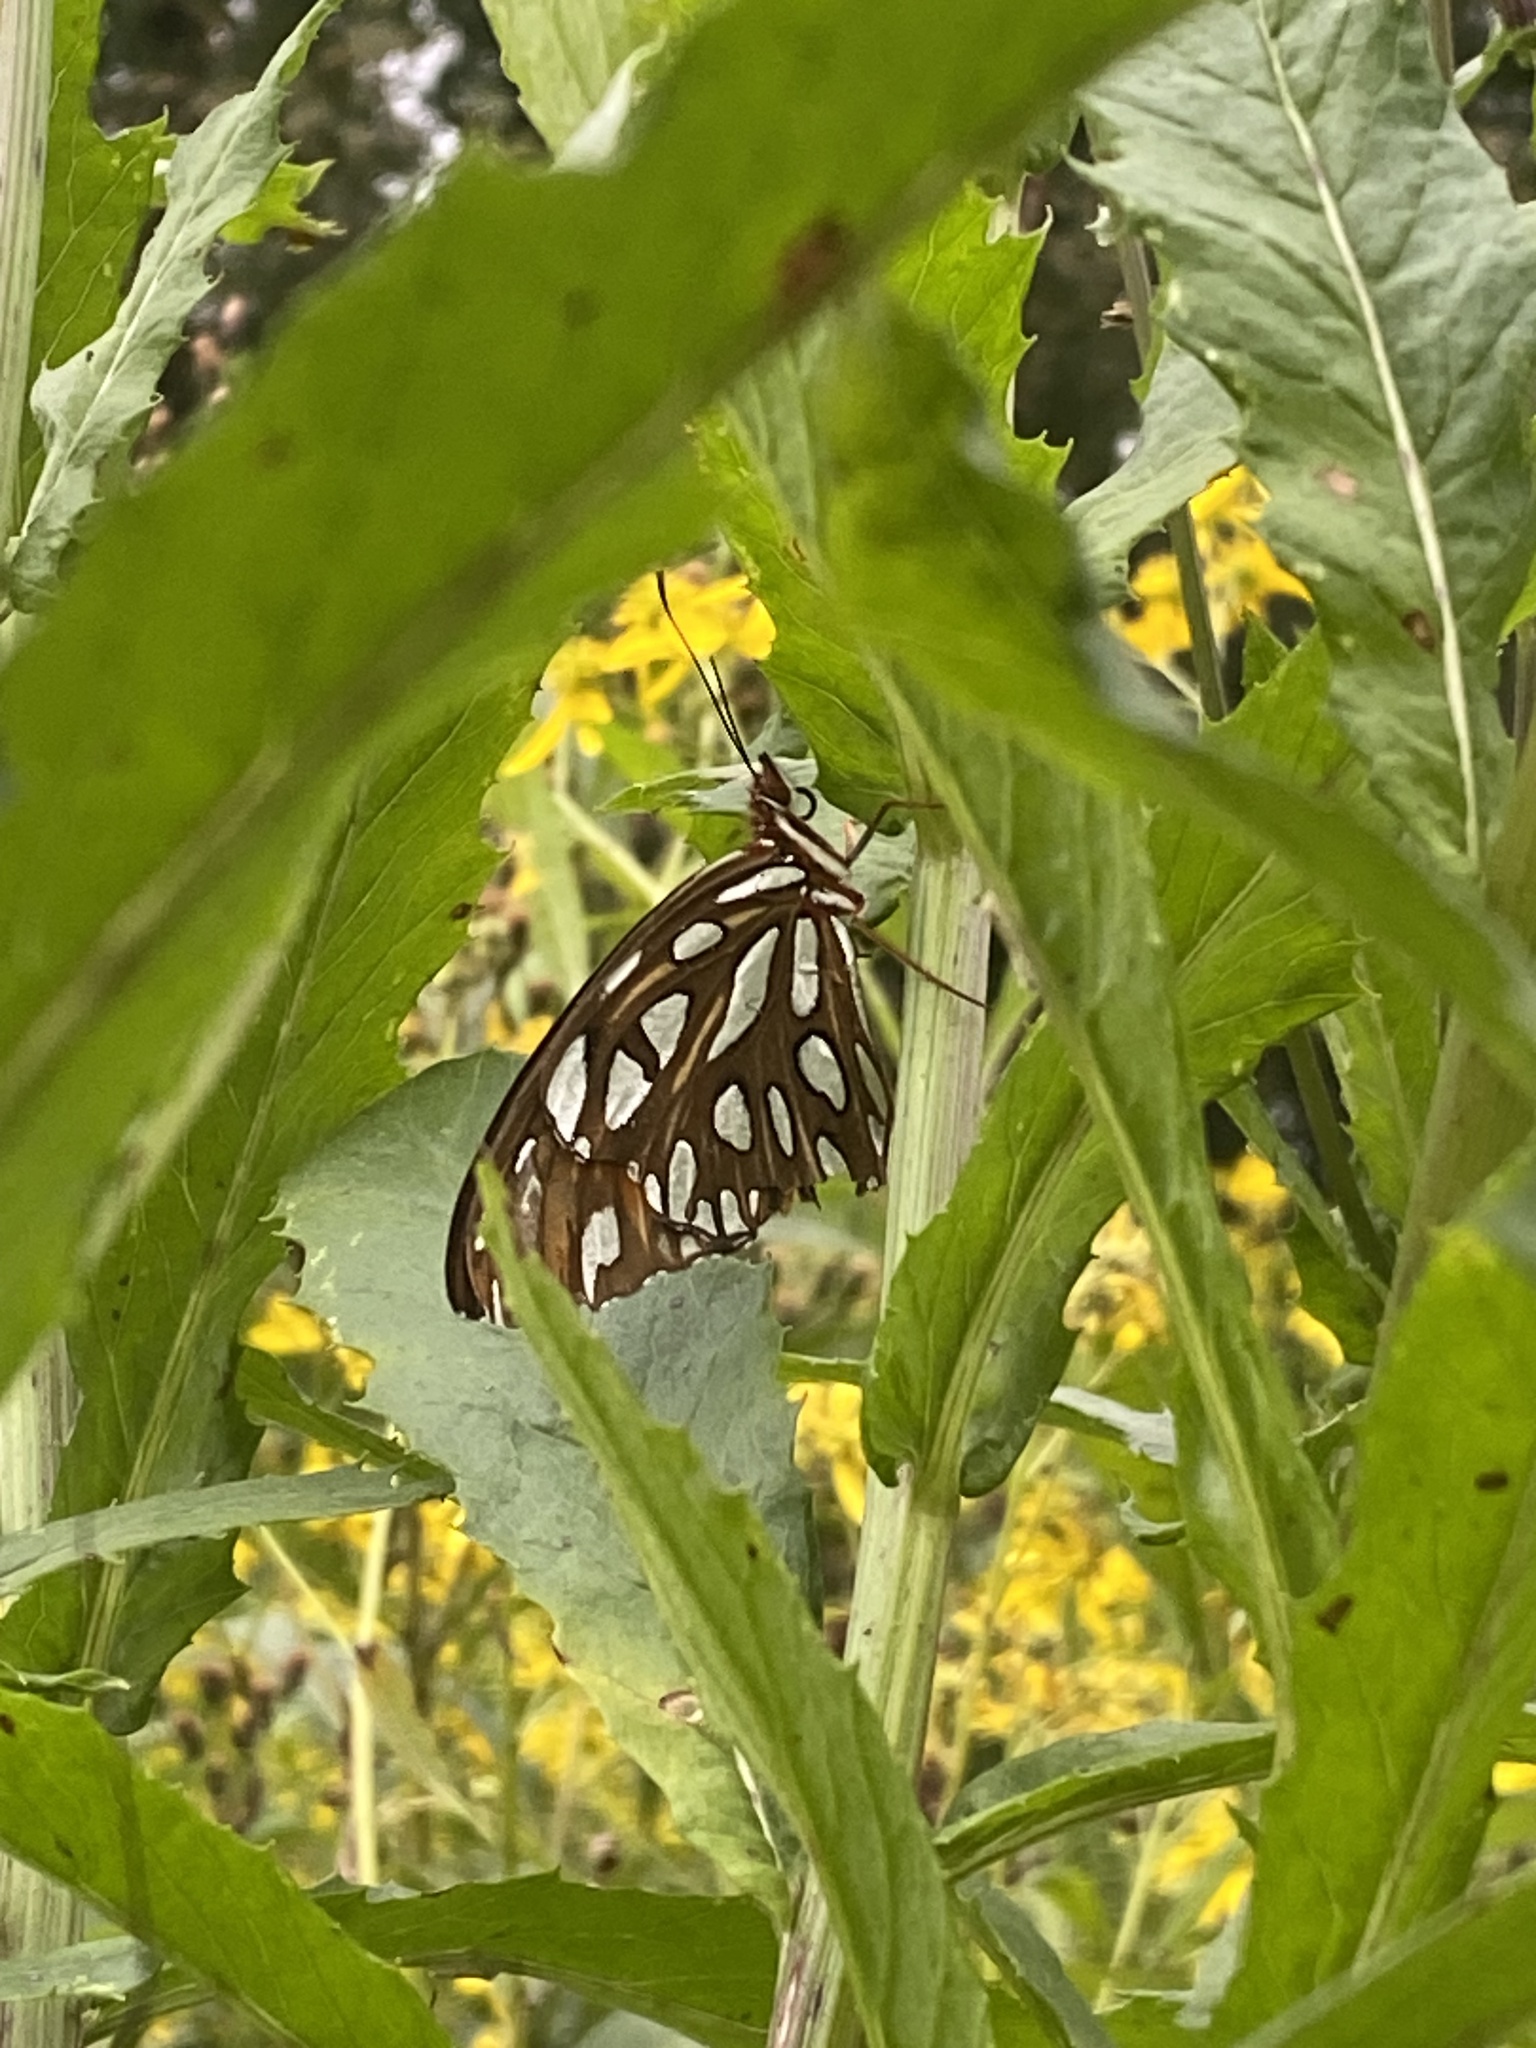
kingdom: Animalia
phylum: Arthropoda
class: Insecta
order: Lepidoptera
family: Nymphalidae
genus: Dione
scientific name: Dione vanillae
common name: Gulf fritillary
